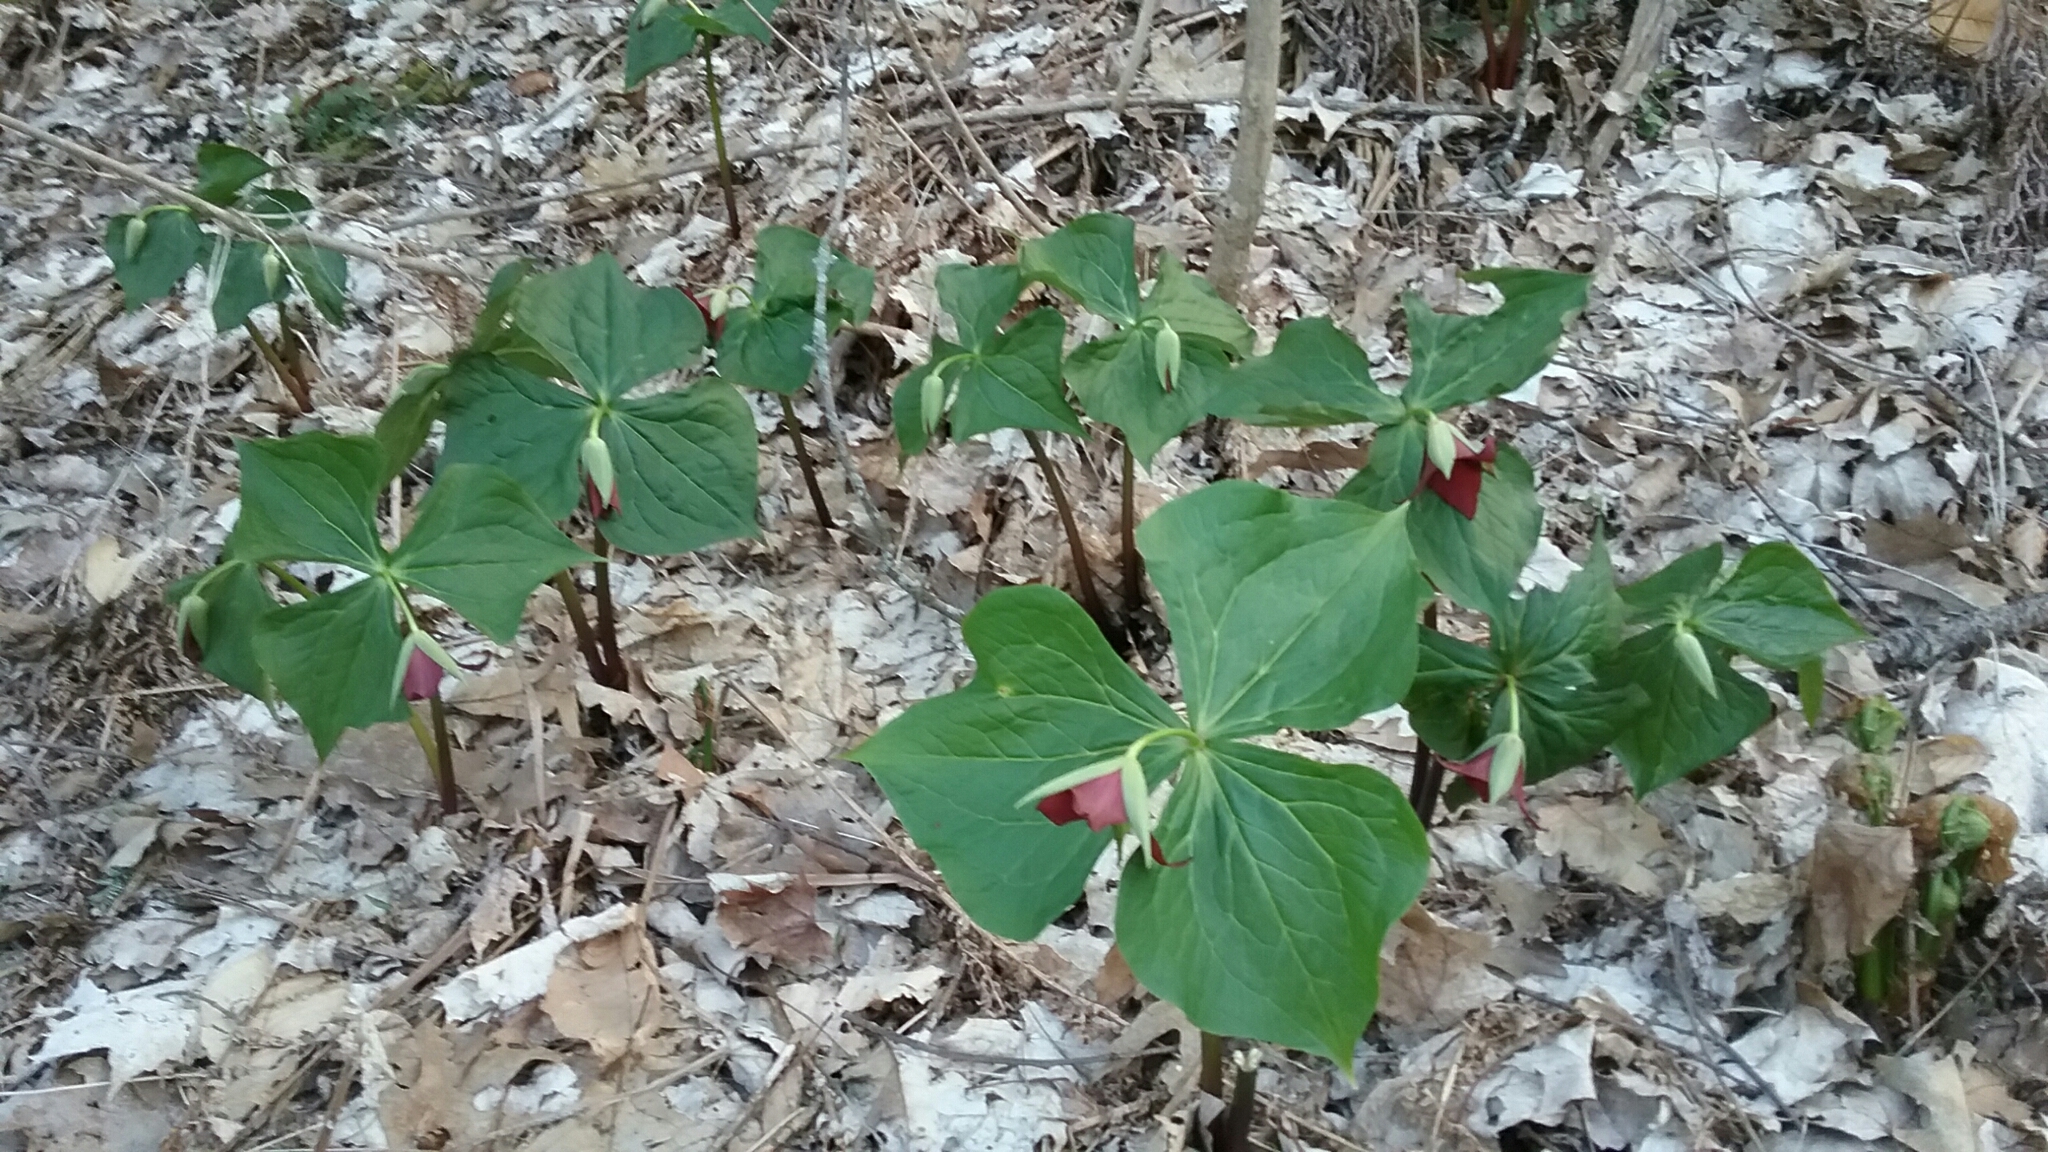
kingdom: Plantae
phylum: Tracheophyta
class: Liliopsida
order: Liliales
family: Melanthiaceae
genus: Trillium
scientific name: Trillium erectum
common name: Purple trillium
